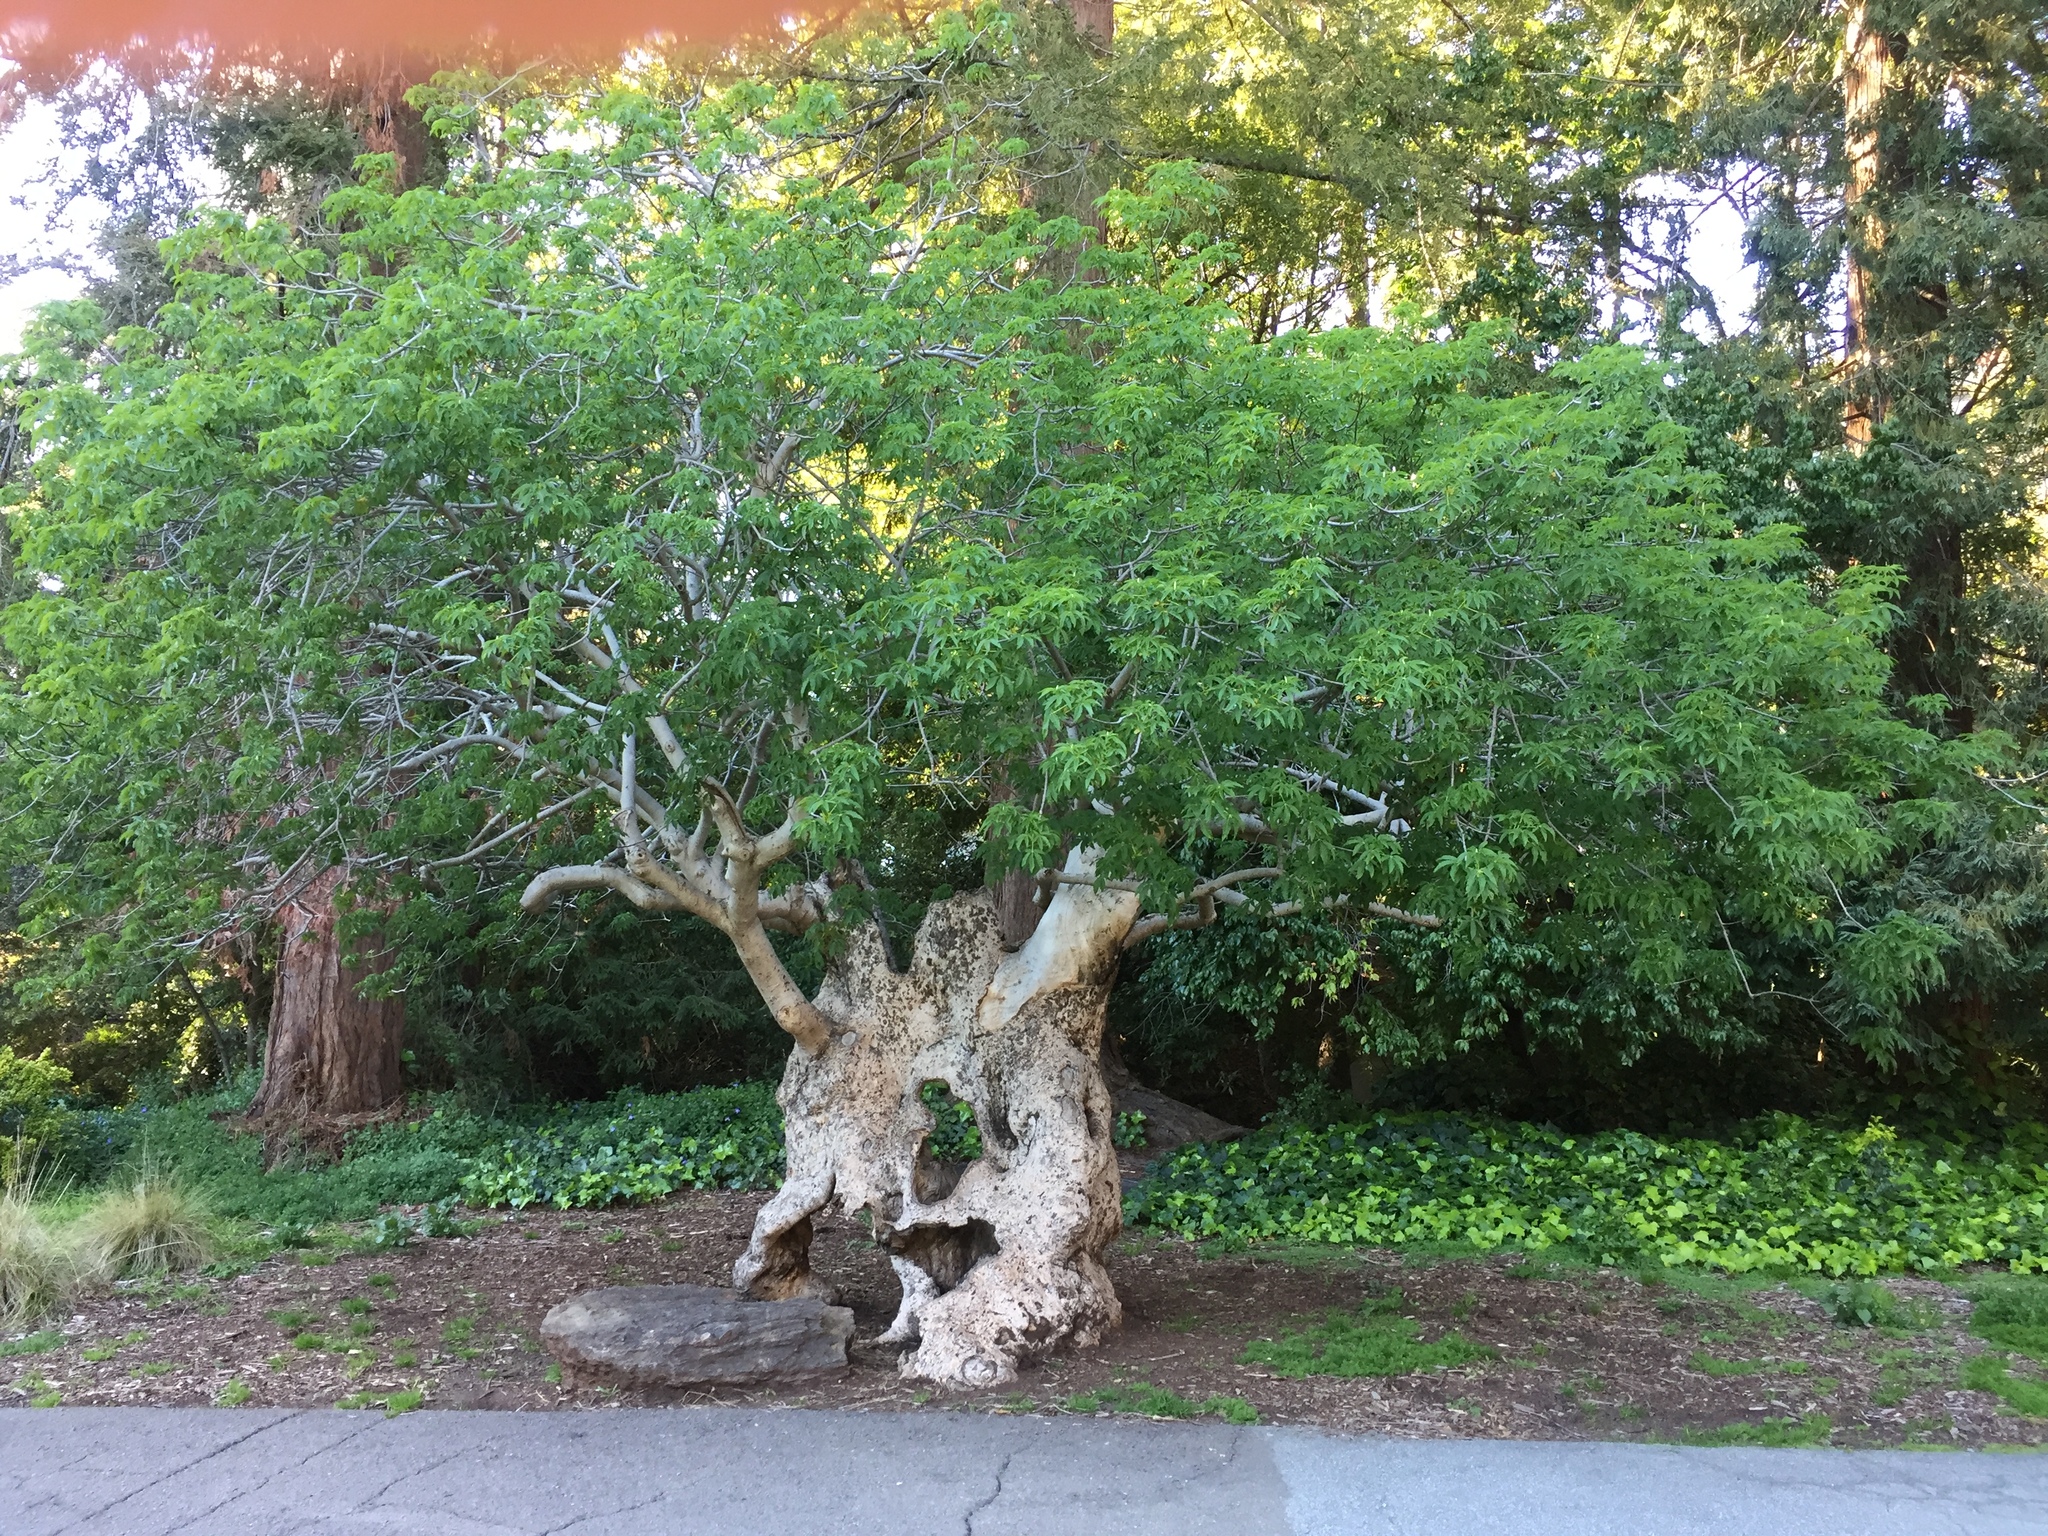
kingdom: Plantae
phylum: Tracheophyta
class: Magnoliopsida
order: Sapindales
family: Sapindaceae
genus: Aesculus
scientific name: Aesculus californica
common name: California buckeye
